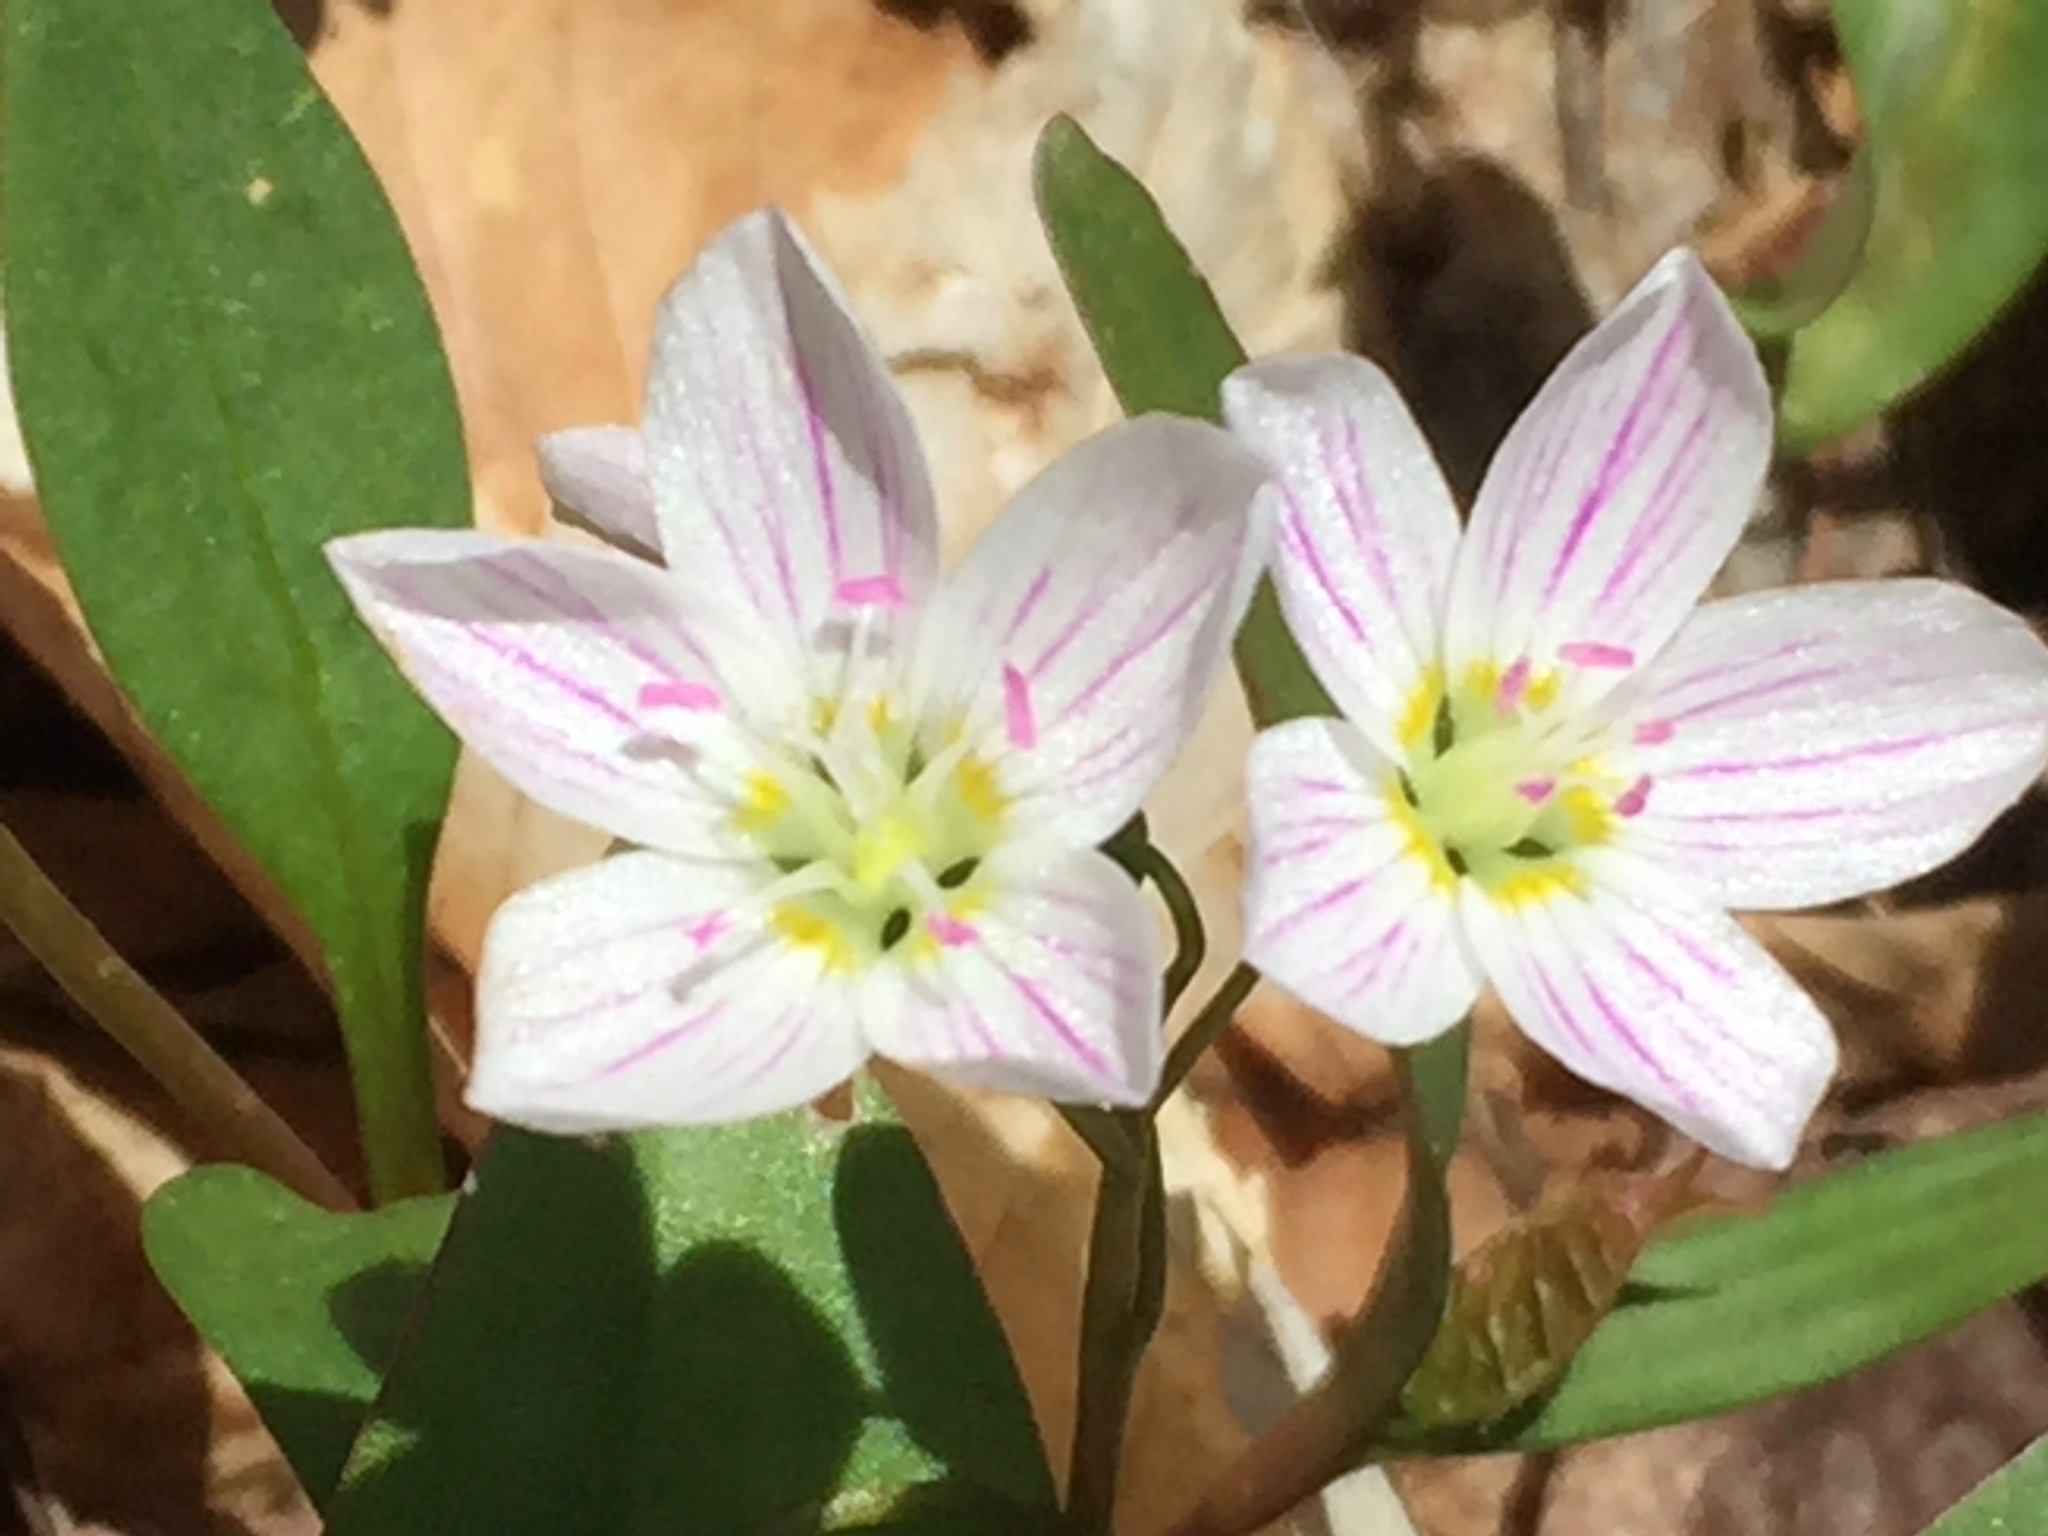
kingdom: Plantae
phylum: Tracheophyta
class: Magnoliopsida
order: Caryophyllales
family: Montiaceae
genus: Claytonia
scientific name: Claytonia caroliniana
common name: Carolina spring beauty
